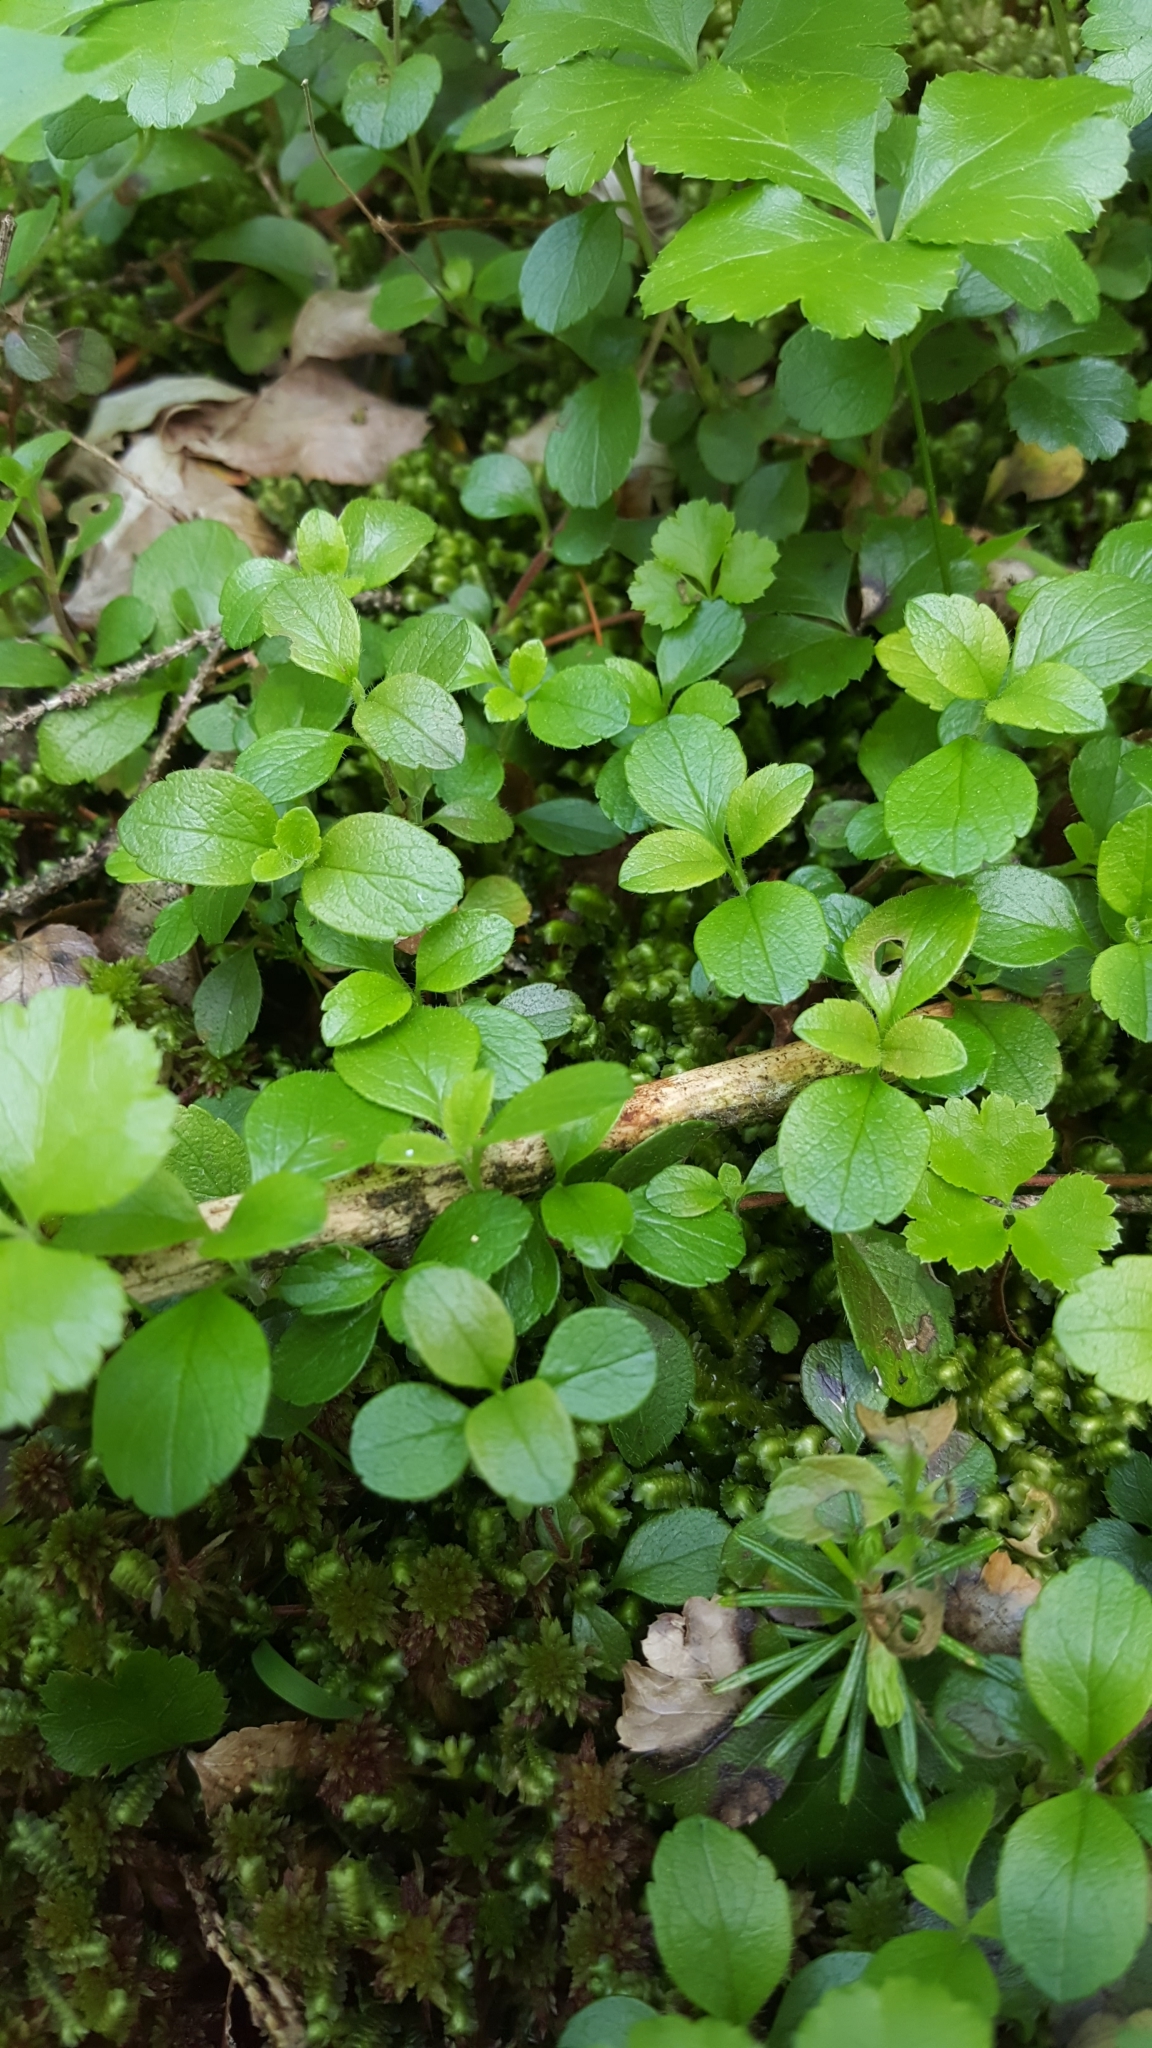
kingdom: Plantae
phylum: Tracheophyta
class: Magnoliopsida
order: Dipsacales
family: Caprifoliaceae
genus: Linnaea
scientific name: Linnaea borealis
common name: Twinflower
